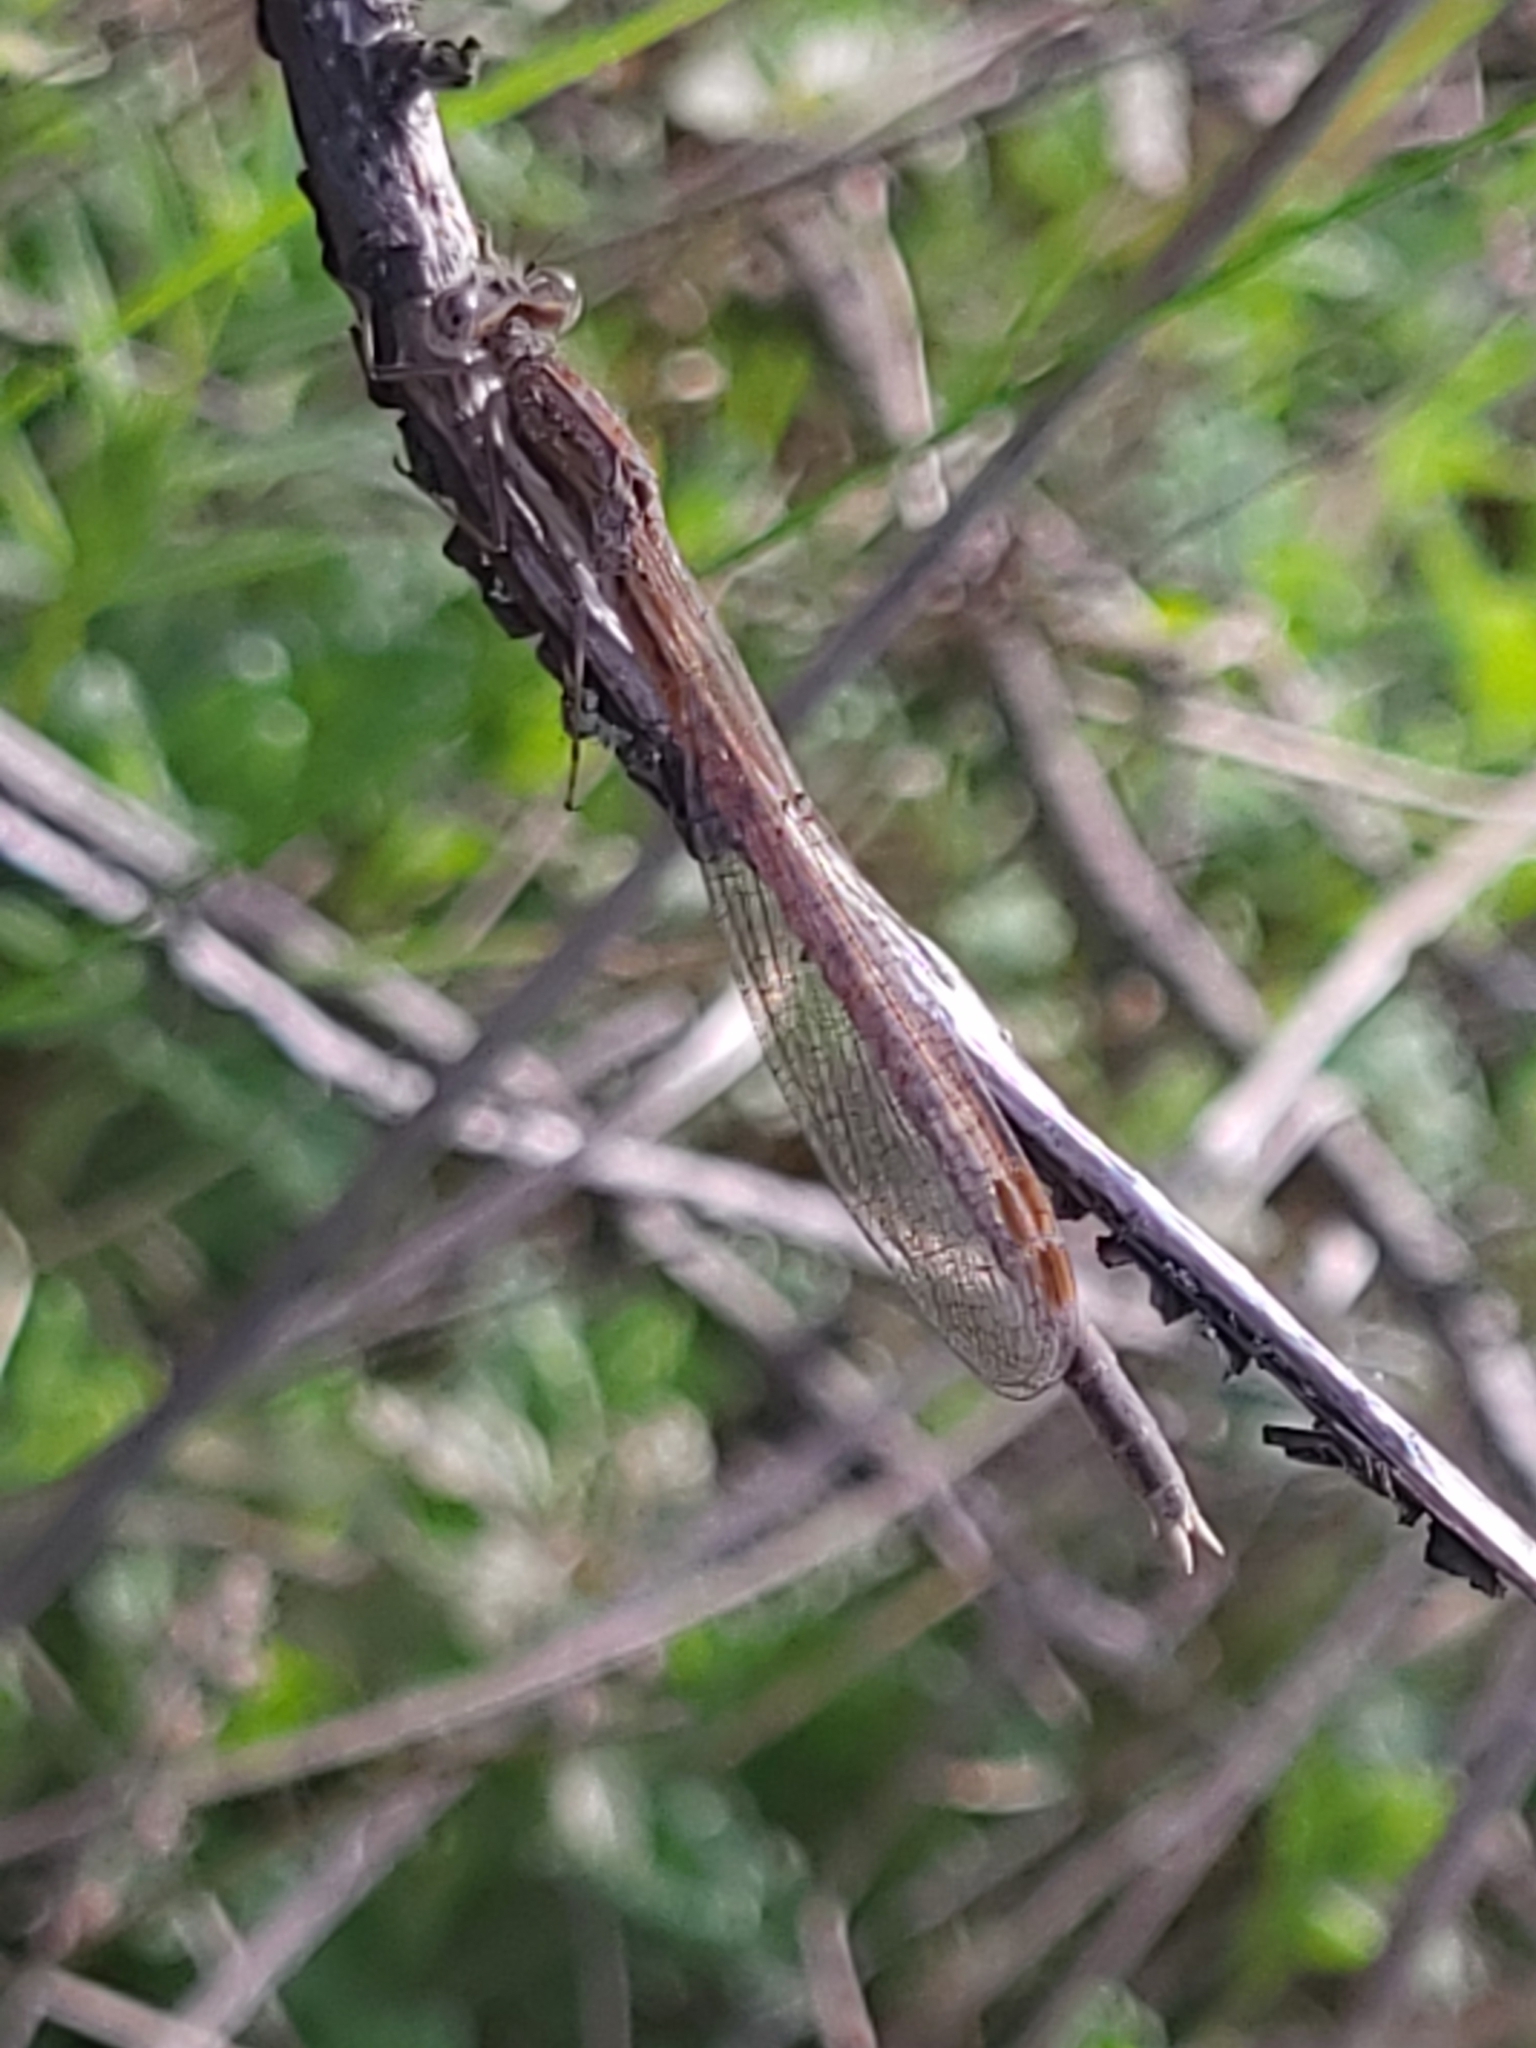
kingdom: Animalia
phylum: Arthropoda
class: Insecta
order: Odonata
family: Lestidae
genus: Sympecma
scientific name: Sympecma fusca
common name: Common winter damsel
